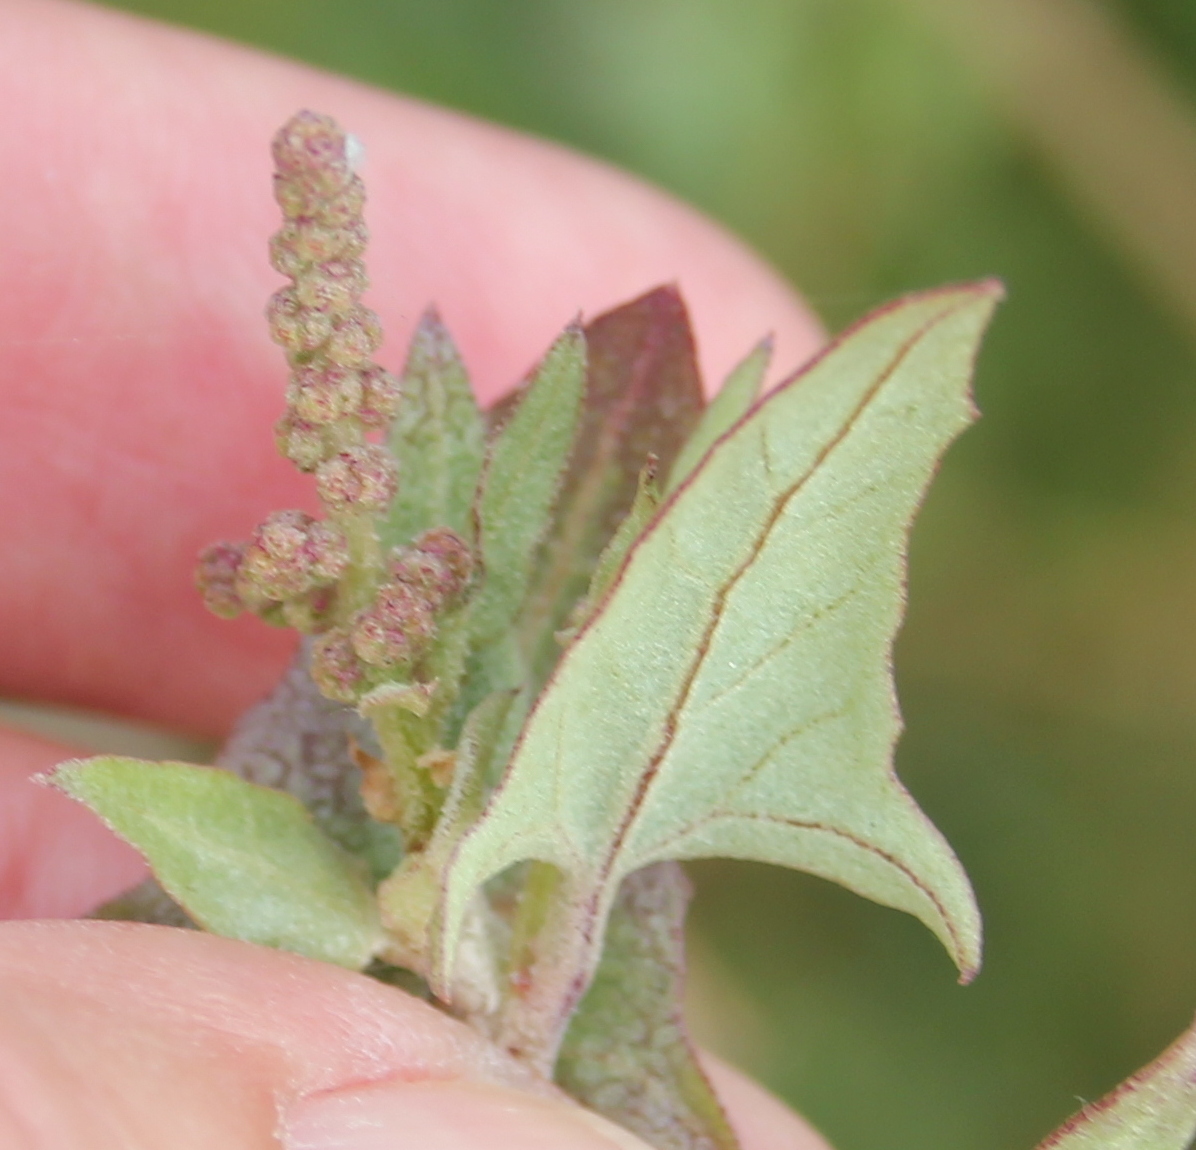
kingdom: Plantae
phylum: Tracheophyta
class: Magnoliopsida
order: Caryophyllales
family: Amaranthaceae
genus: Atriplex
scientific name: Atriplex prostrata
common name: Spear-leaved orache
